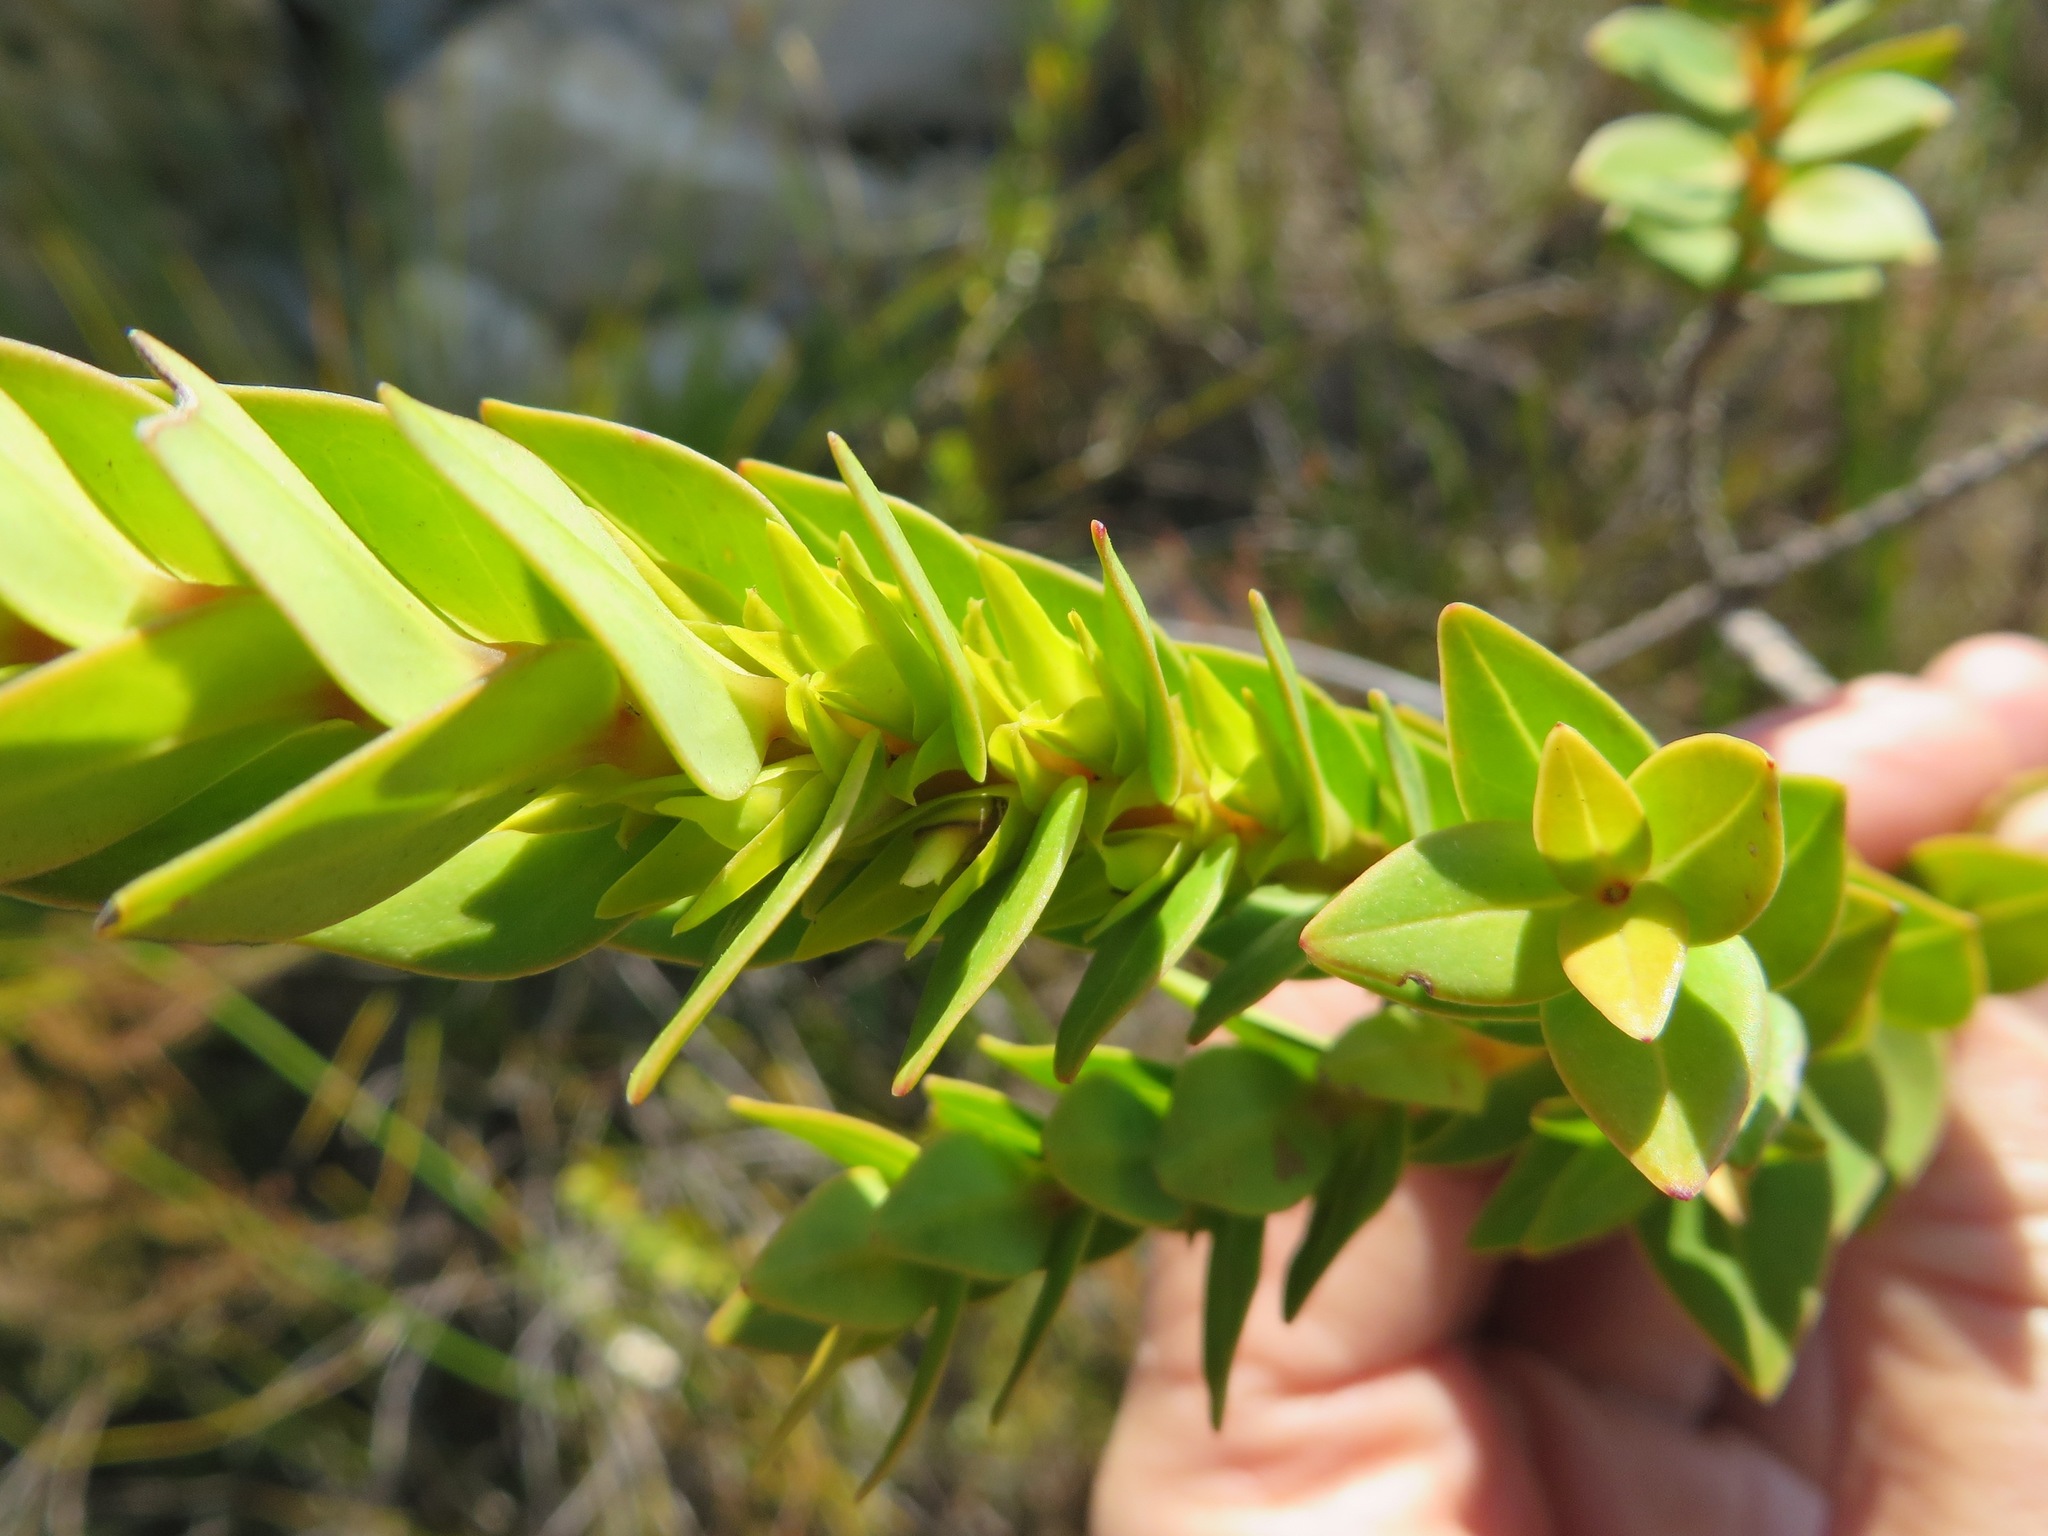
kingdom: Plantae
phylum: Tracheophyta
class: Magnoliopsida
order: Myrtales
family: Penaeaceae
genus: Endonema
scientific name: Endonema lateriflora
